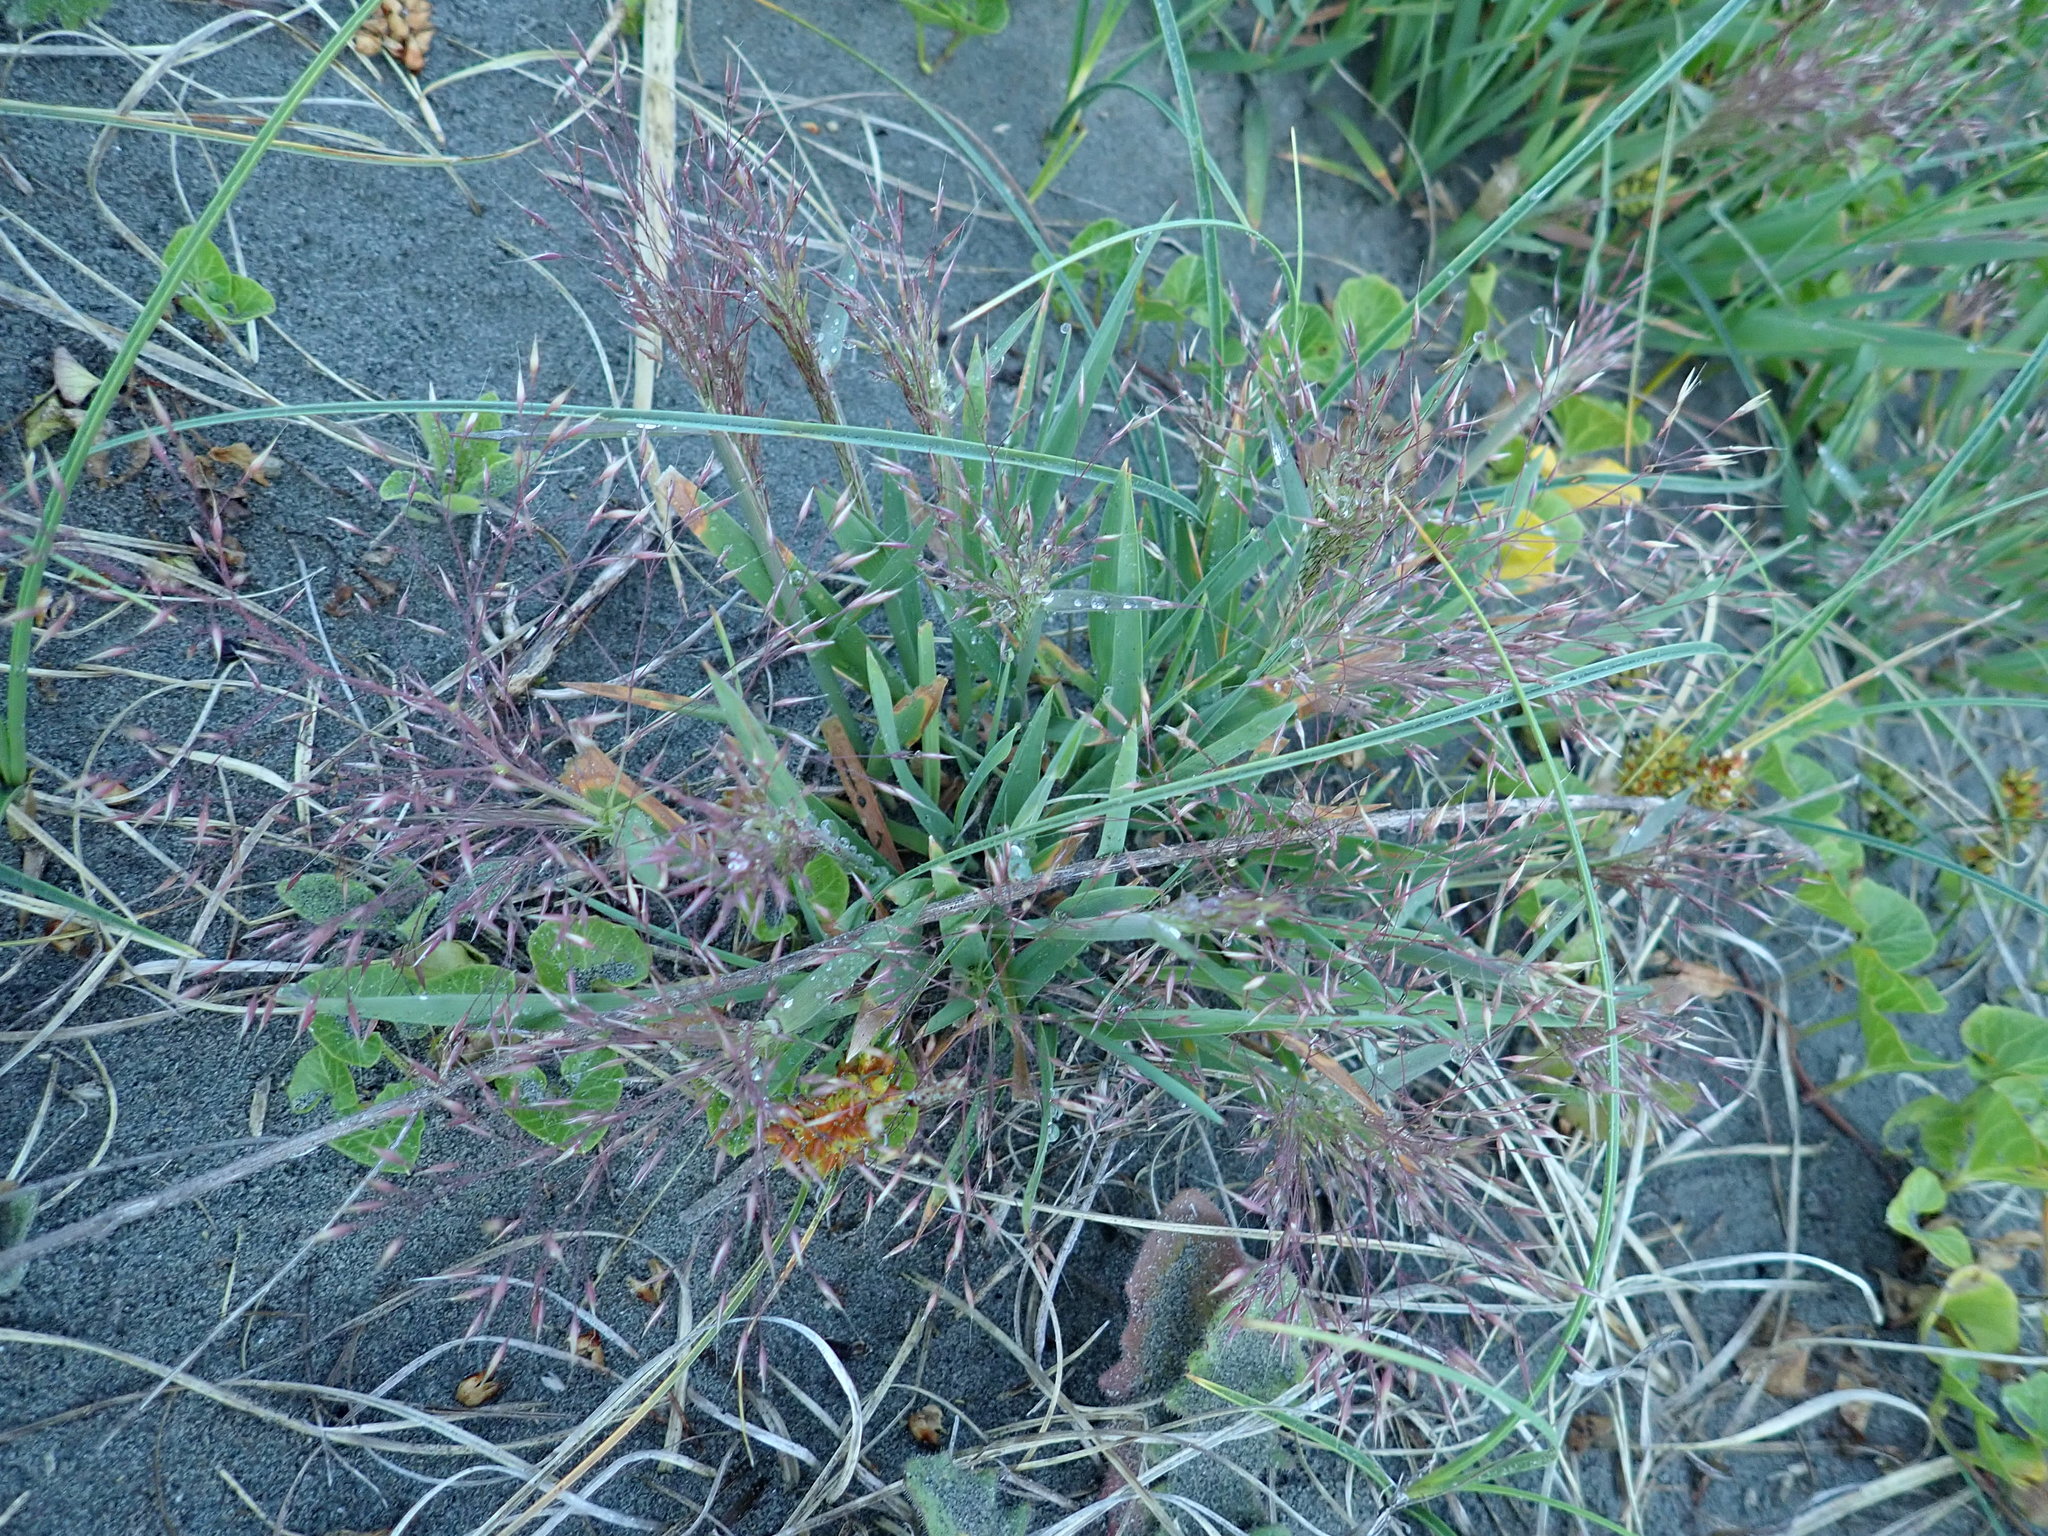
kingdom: Plantae
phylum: Tracheophyta
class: Liliopsida
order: Poales
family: Poaceae
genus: Lachnagrostis
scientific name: Lachnagrostis billardierei
